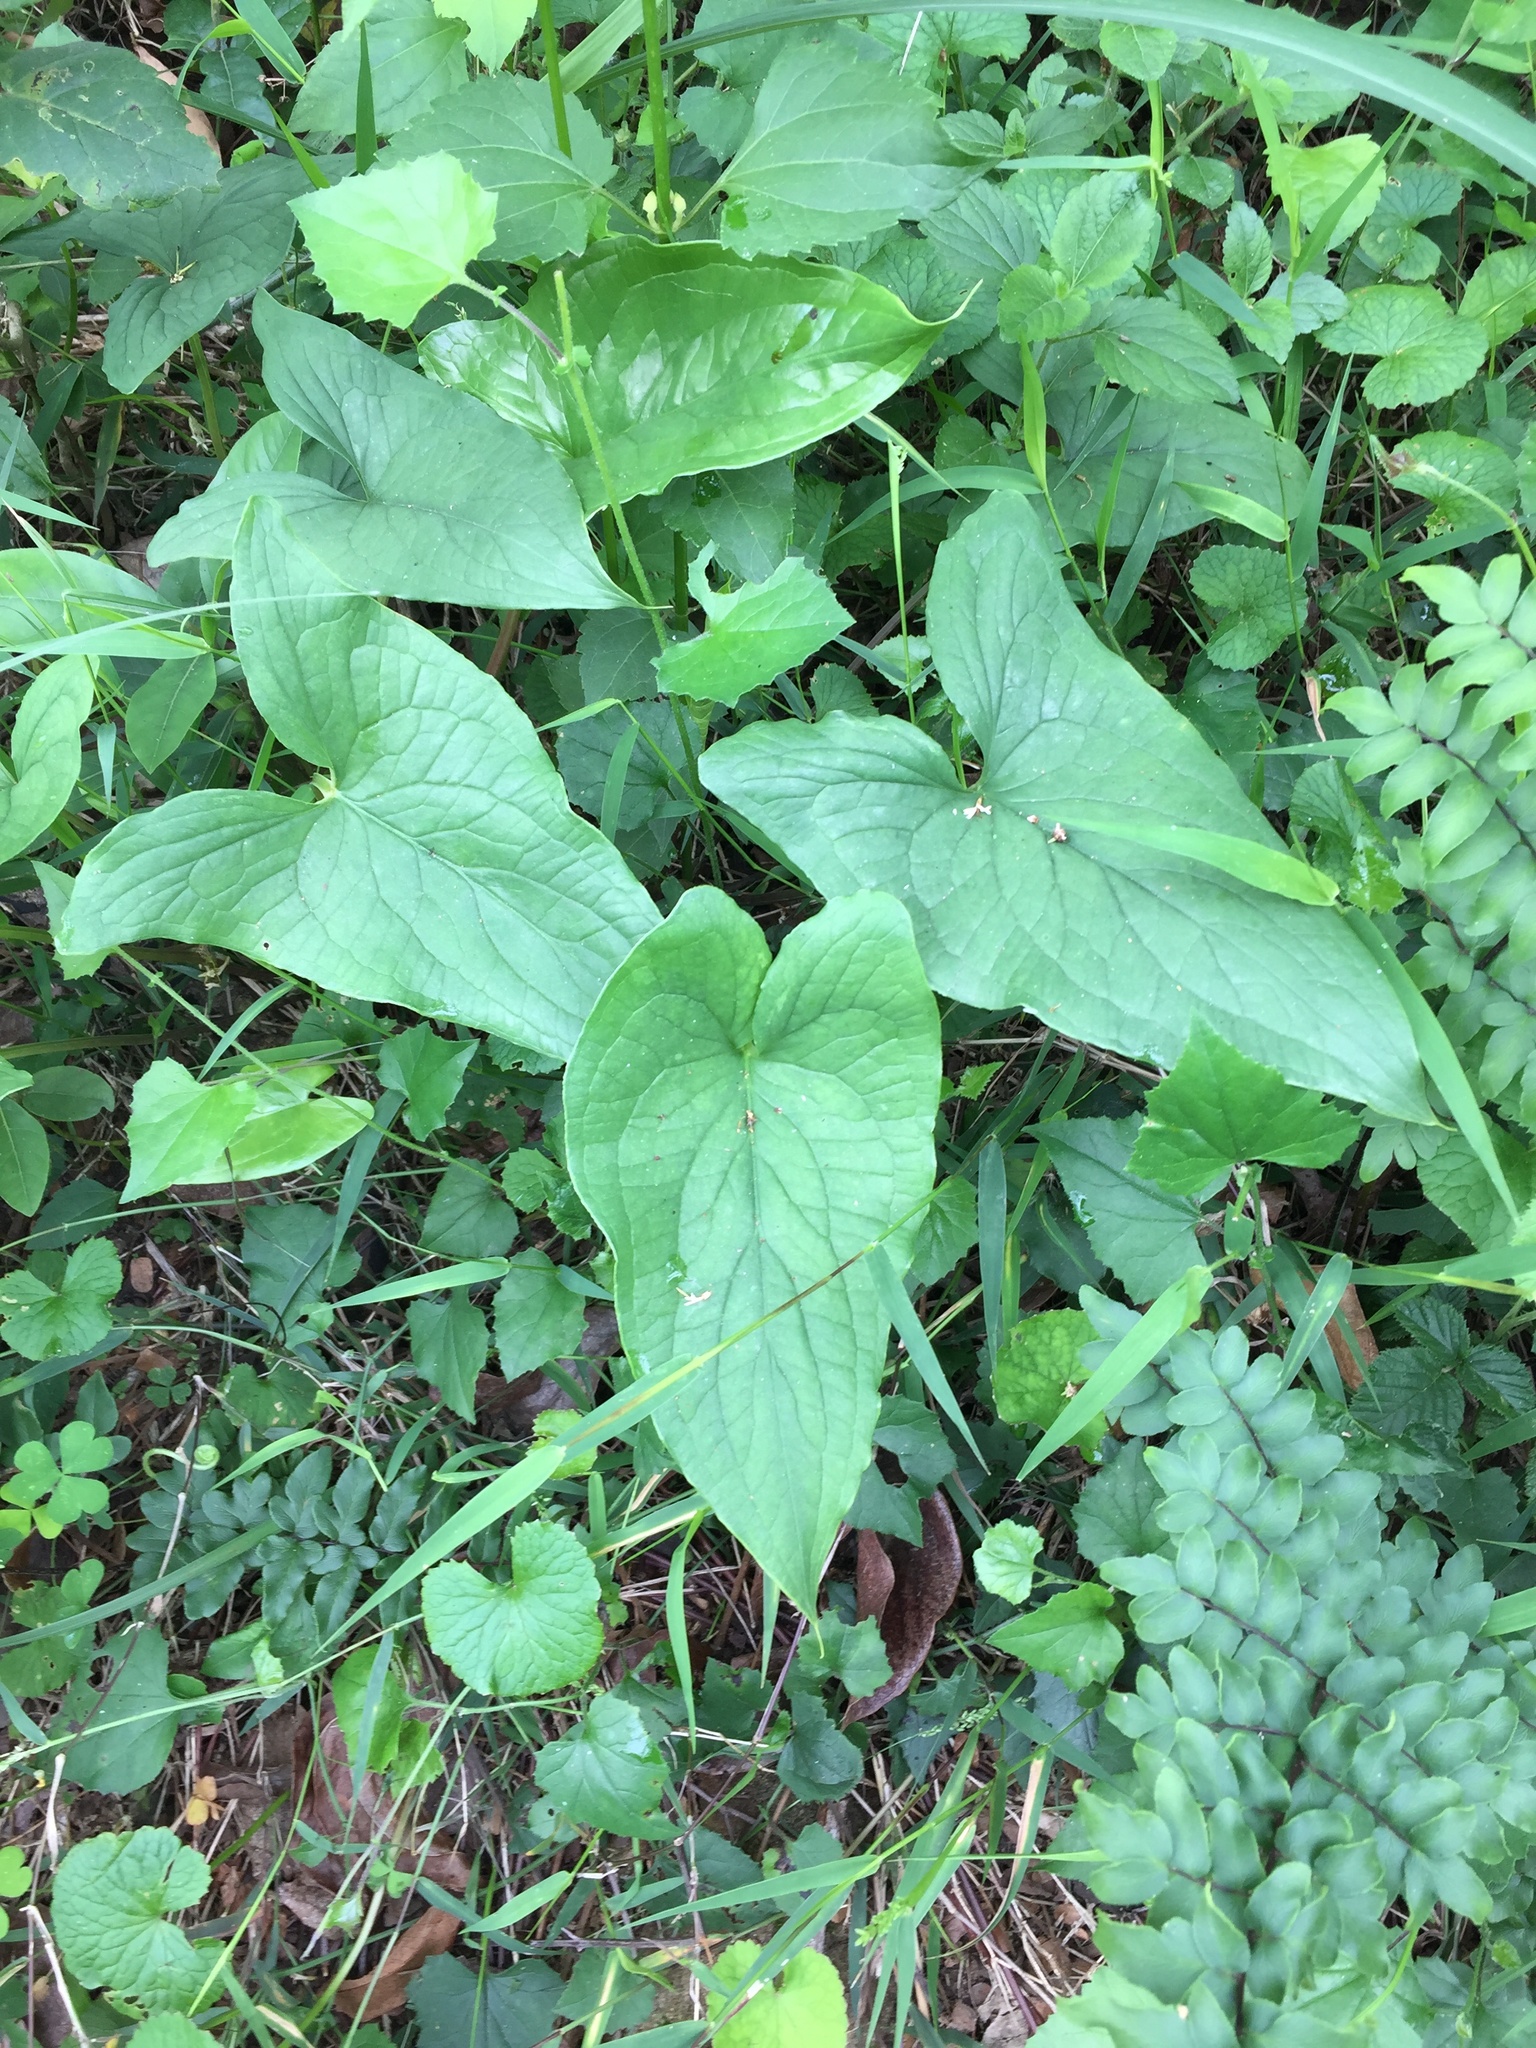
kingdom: Plantae
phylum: Tracheophyta
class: Liliopsida
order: Alismatales
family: Araceae
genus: Stylochaeton
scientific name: Stylochaeton natalensis
